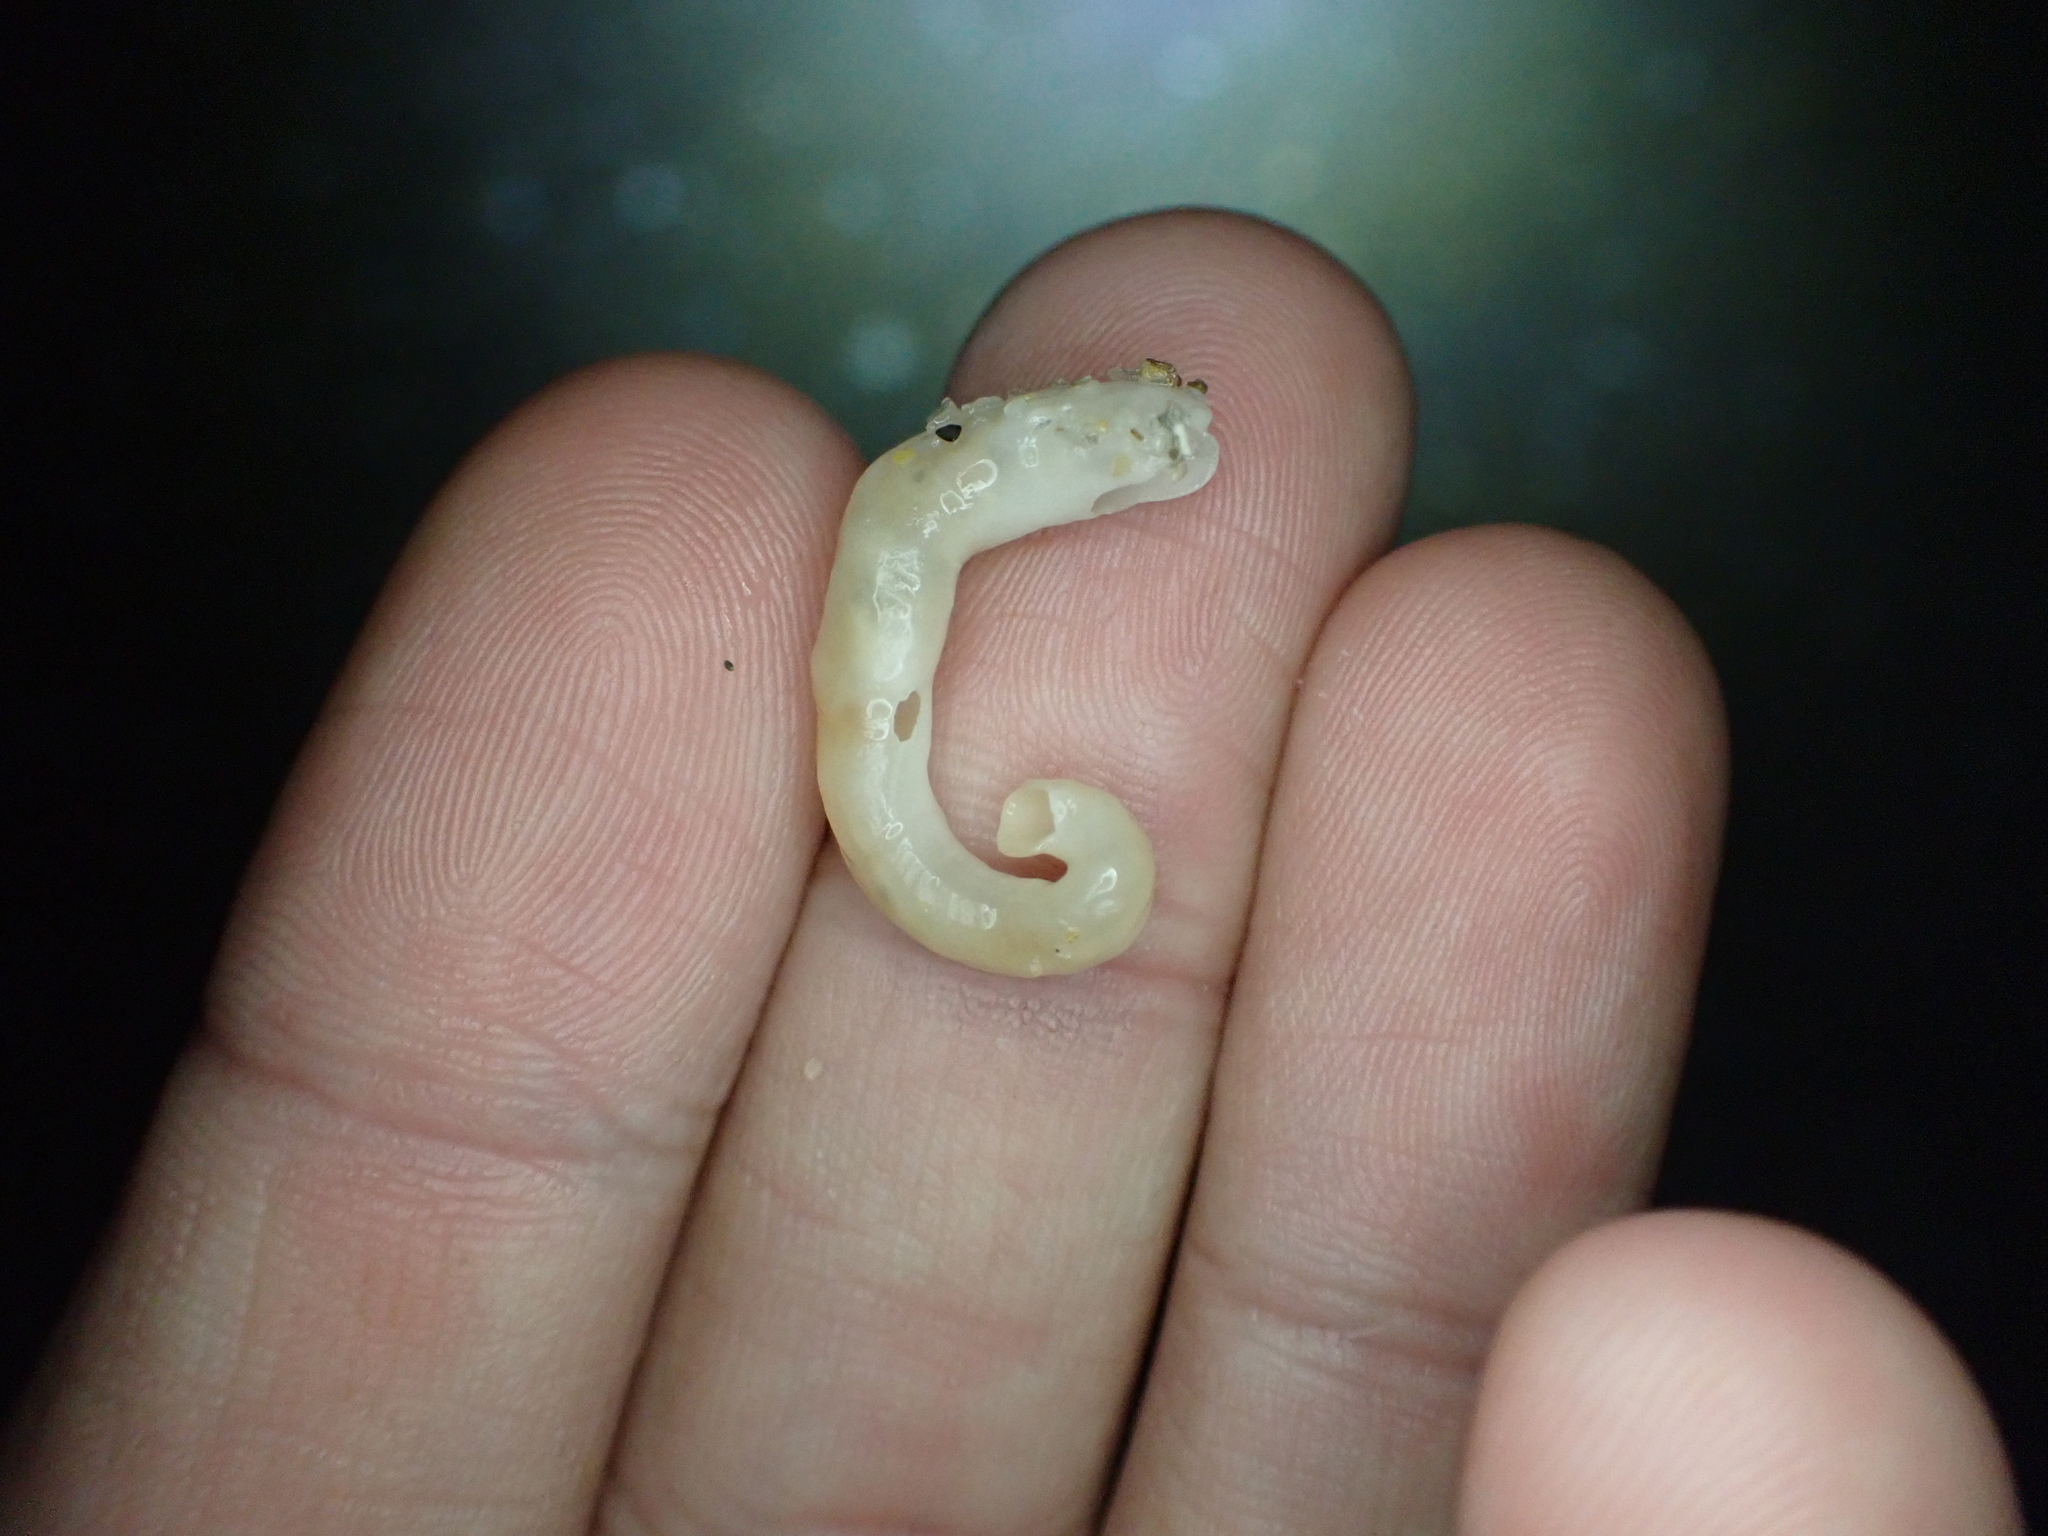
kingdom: Animalia
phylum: Mollusca
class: Gastropoda
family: Turritellidae
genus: Vermicularia
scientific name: Vermicularia lumbricalis
